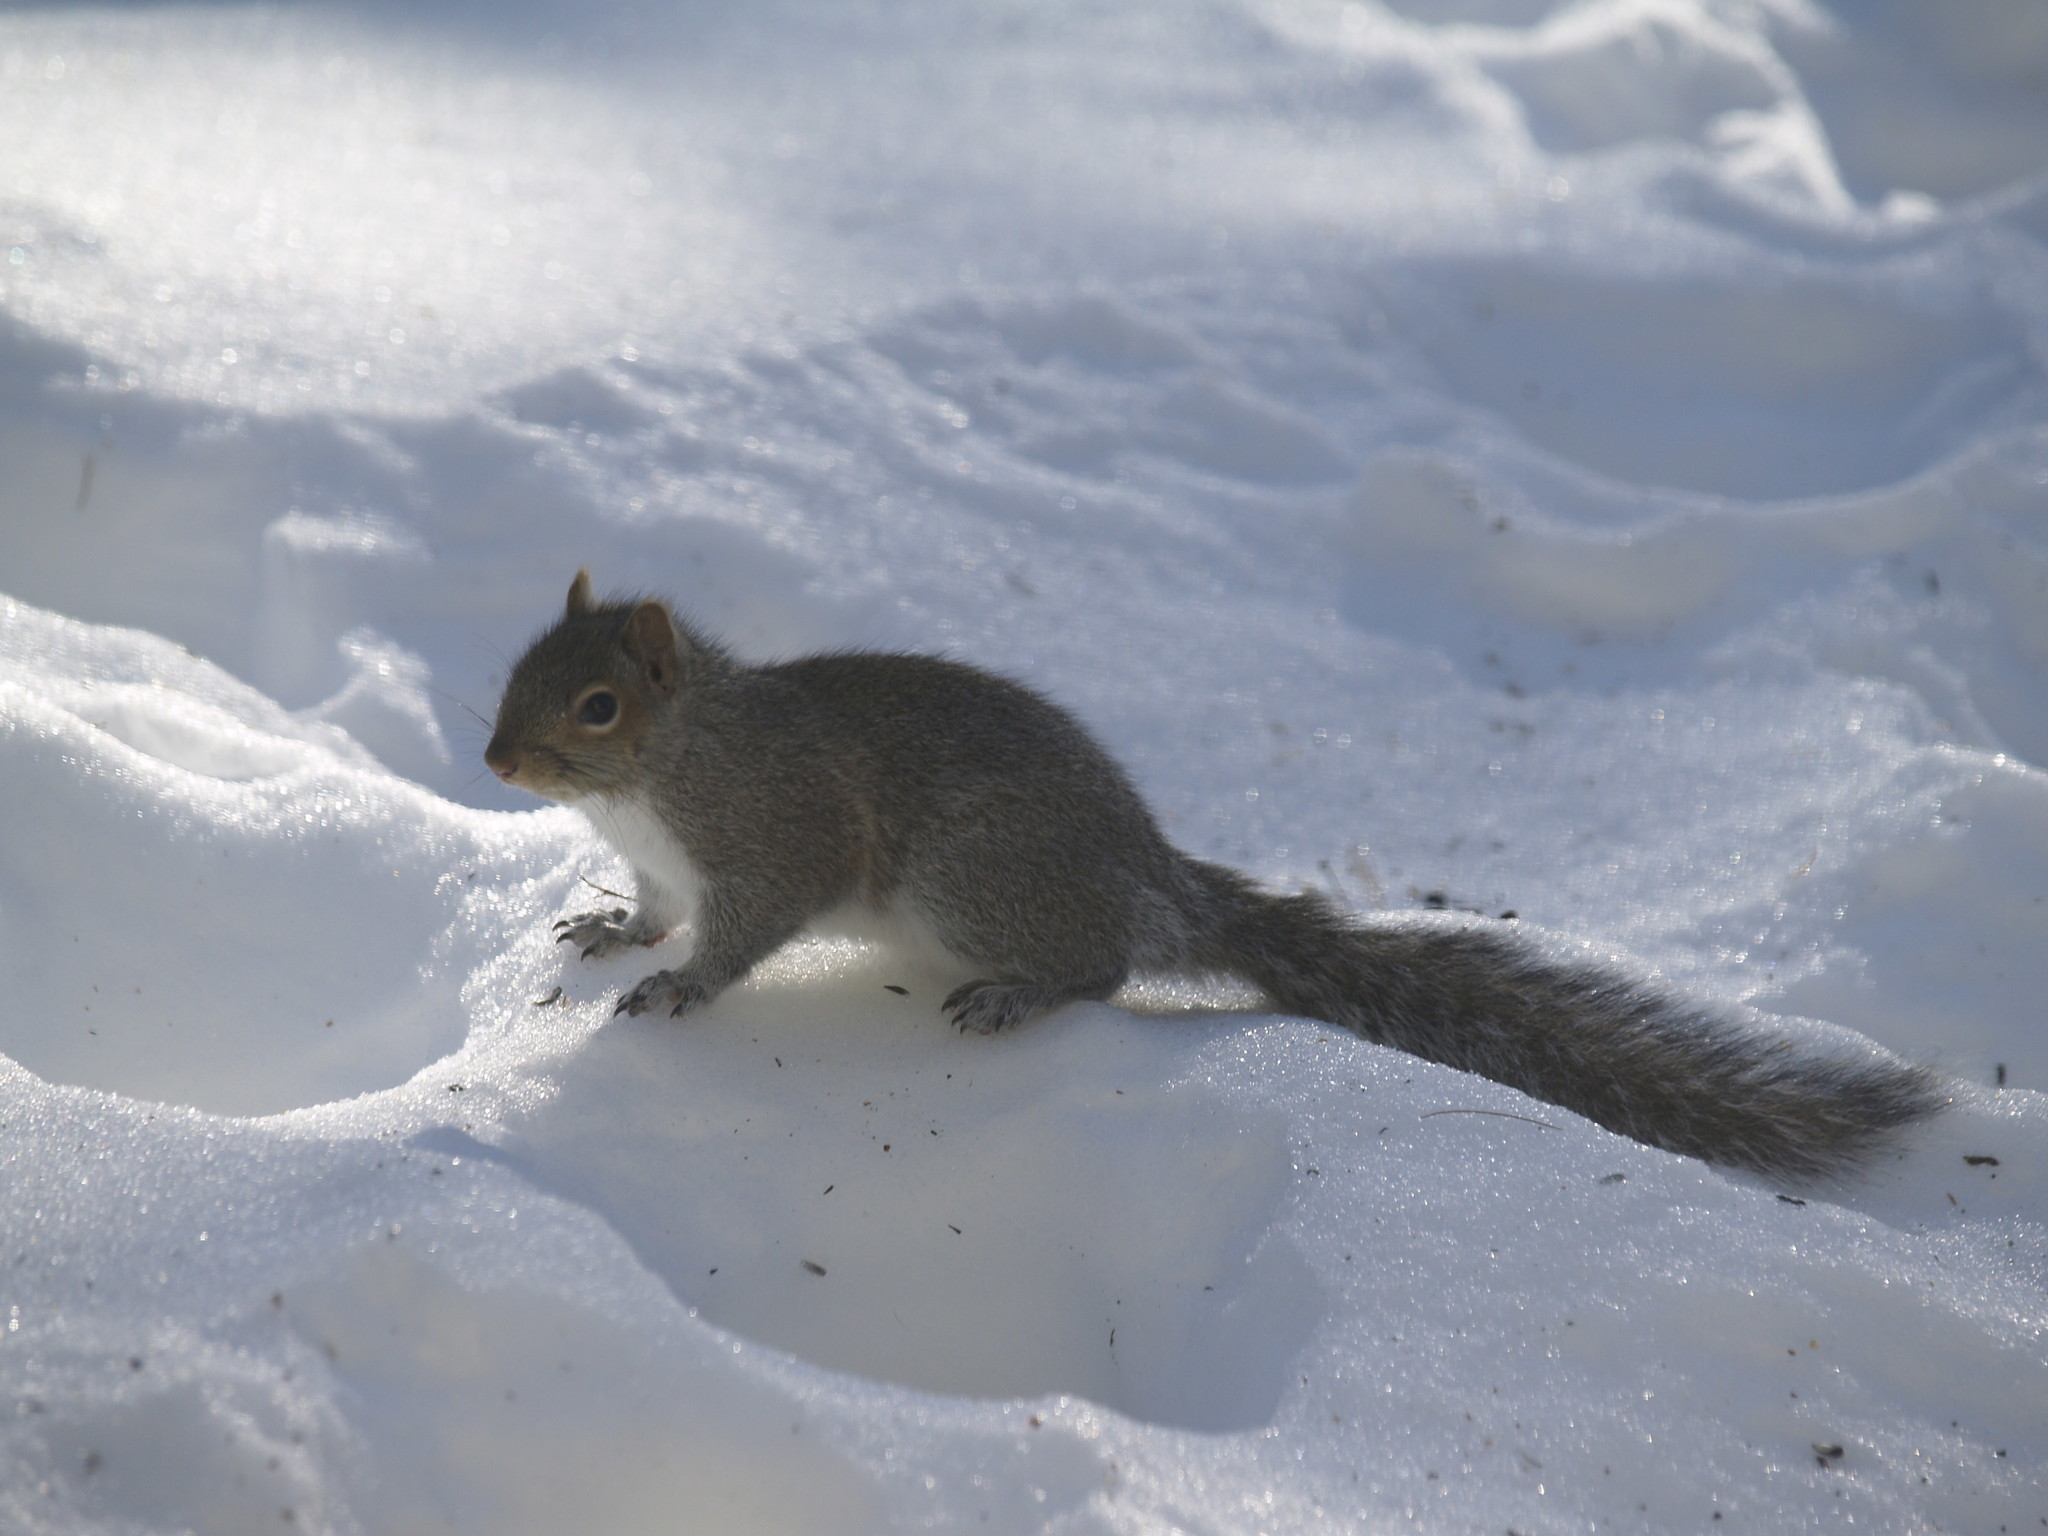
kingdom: Animalia
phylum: Chordata
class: Mammalia
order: Rodentia
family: Sciuridae
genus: Sciurus
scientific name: Sciurus carolinensis
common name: Eastern gray squirrel
